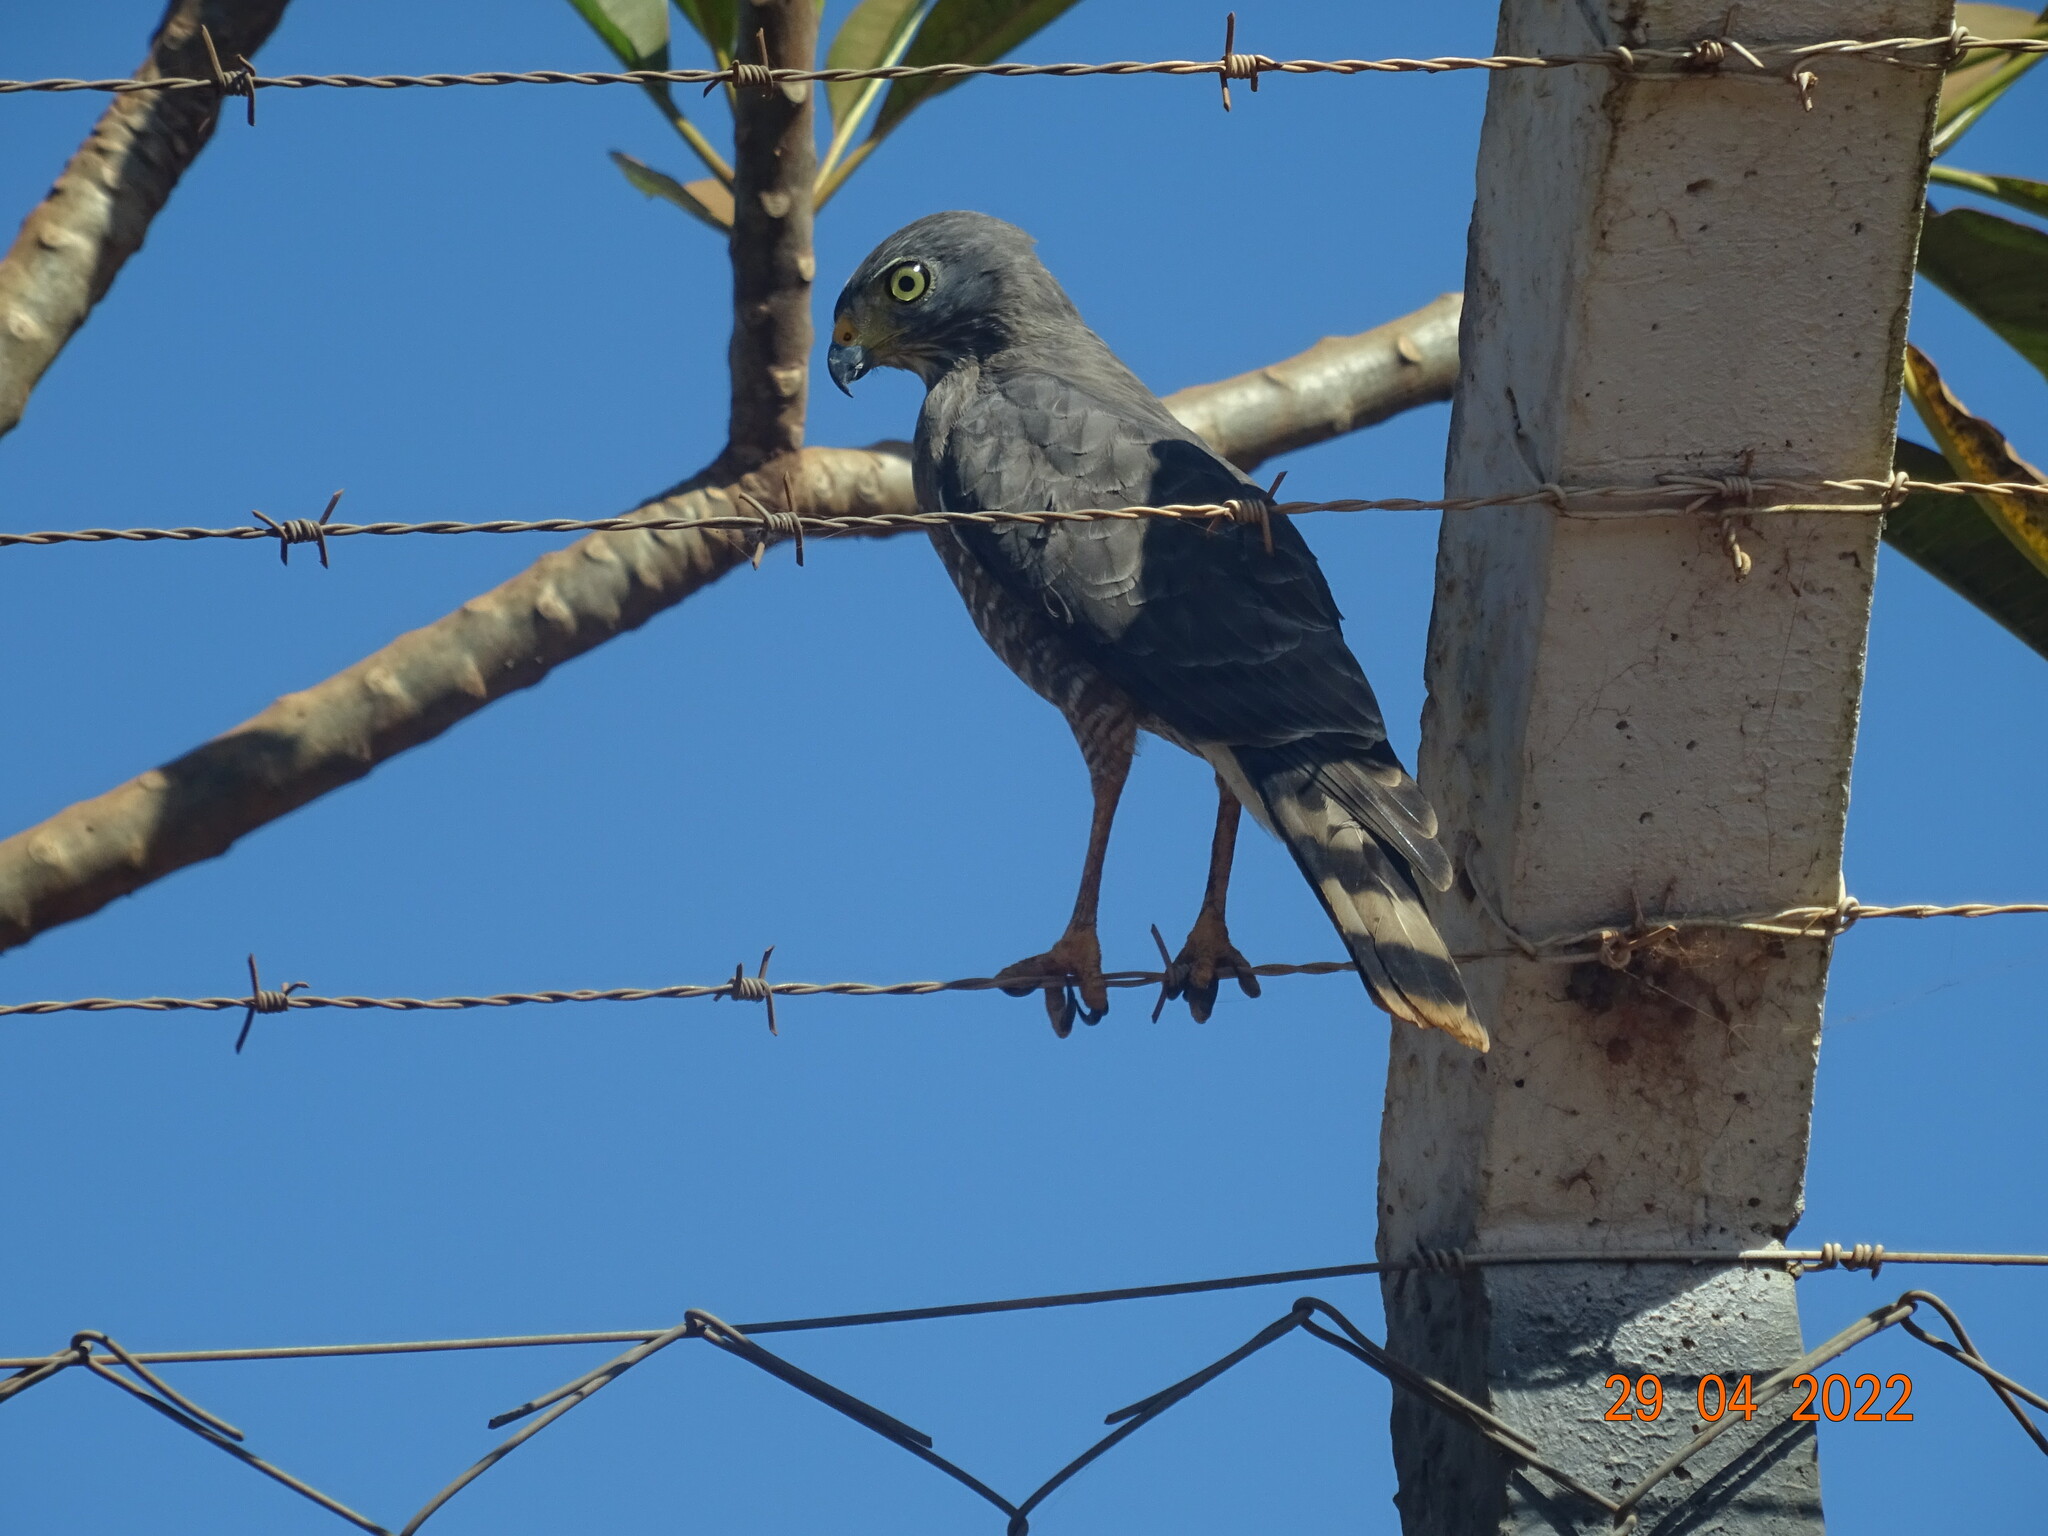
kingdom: Animalia
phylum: Chordata
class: Aves
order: Accipitriformes
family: Accipitridae
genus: Rupornis
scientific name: Rupornis magnirostris
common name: Roadside hawk
